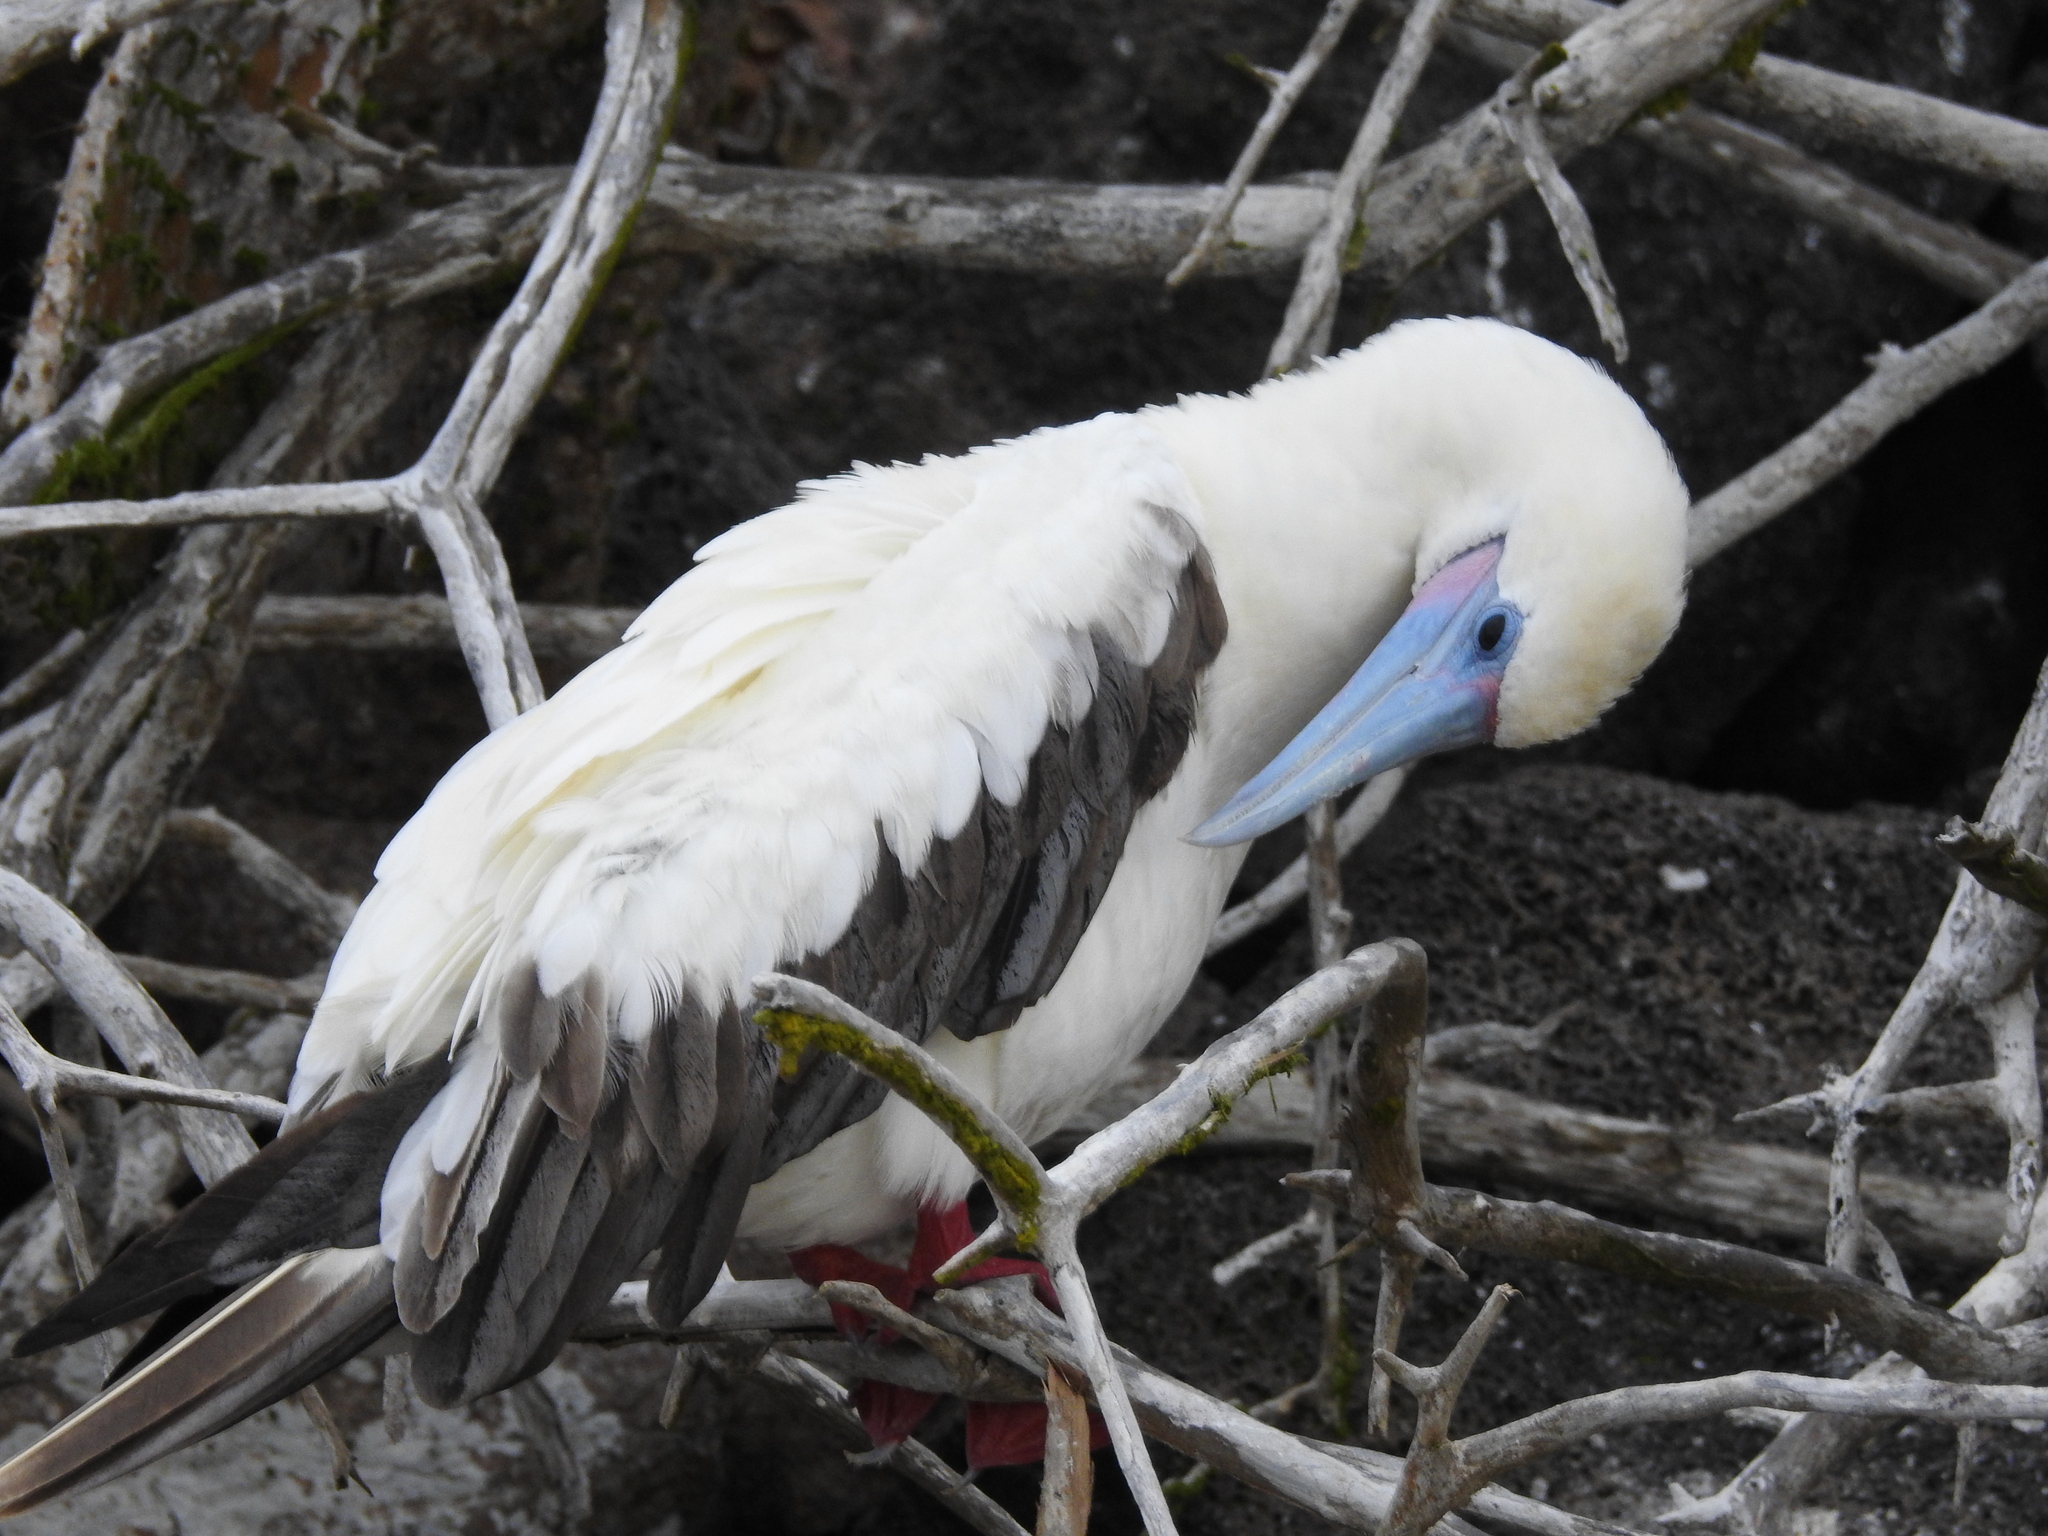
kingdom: Animalia
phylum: Chordata
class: Aves
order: Suliformes
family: Sulidae
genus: Sula
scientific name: Sula sula
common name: Red-footed booby
